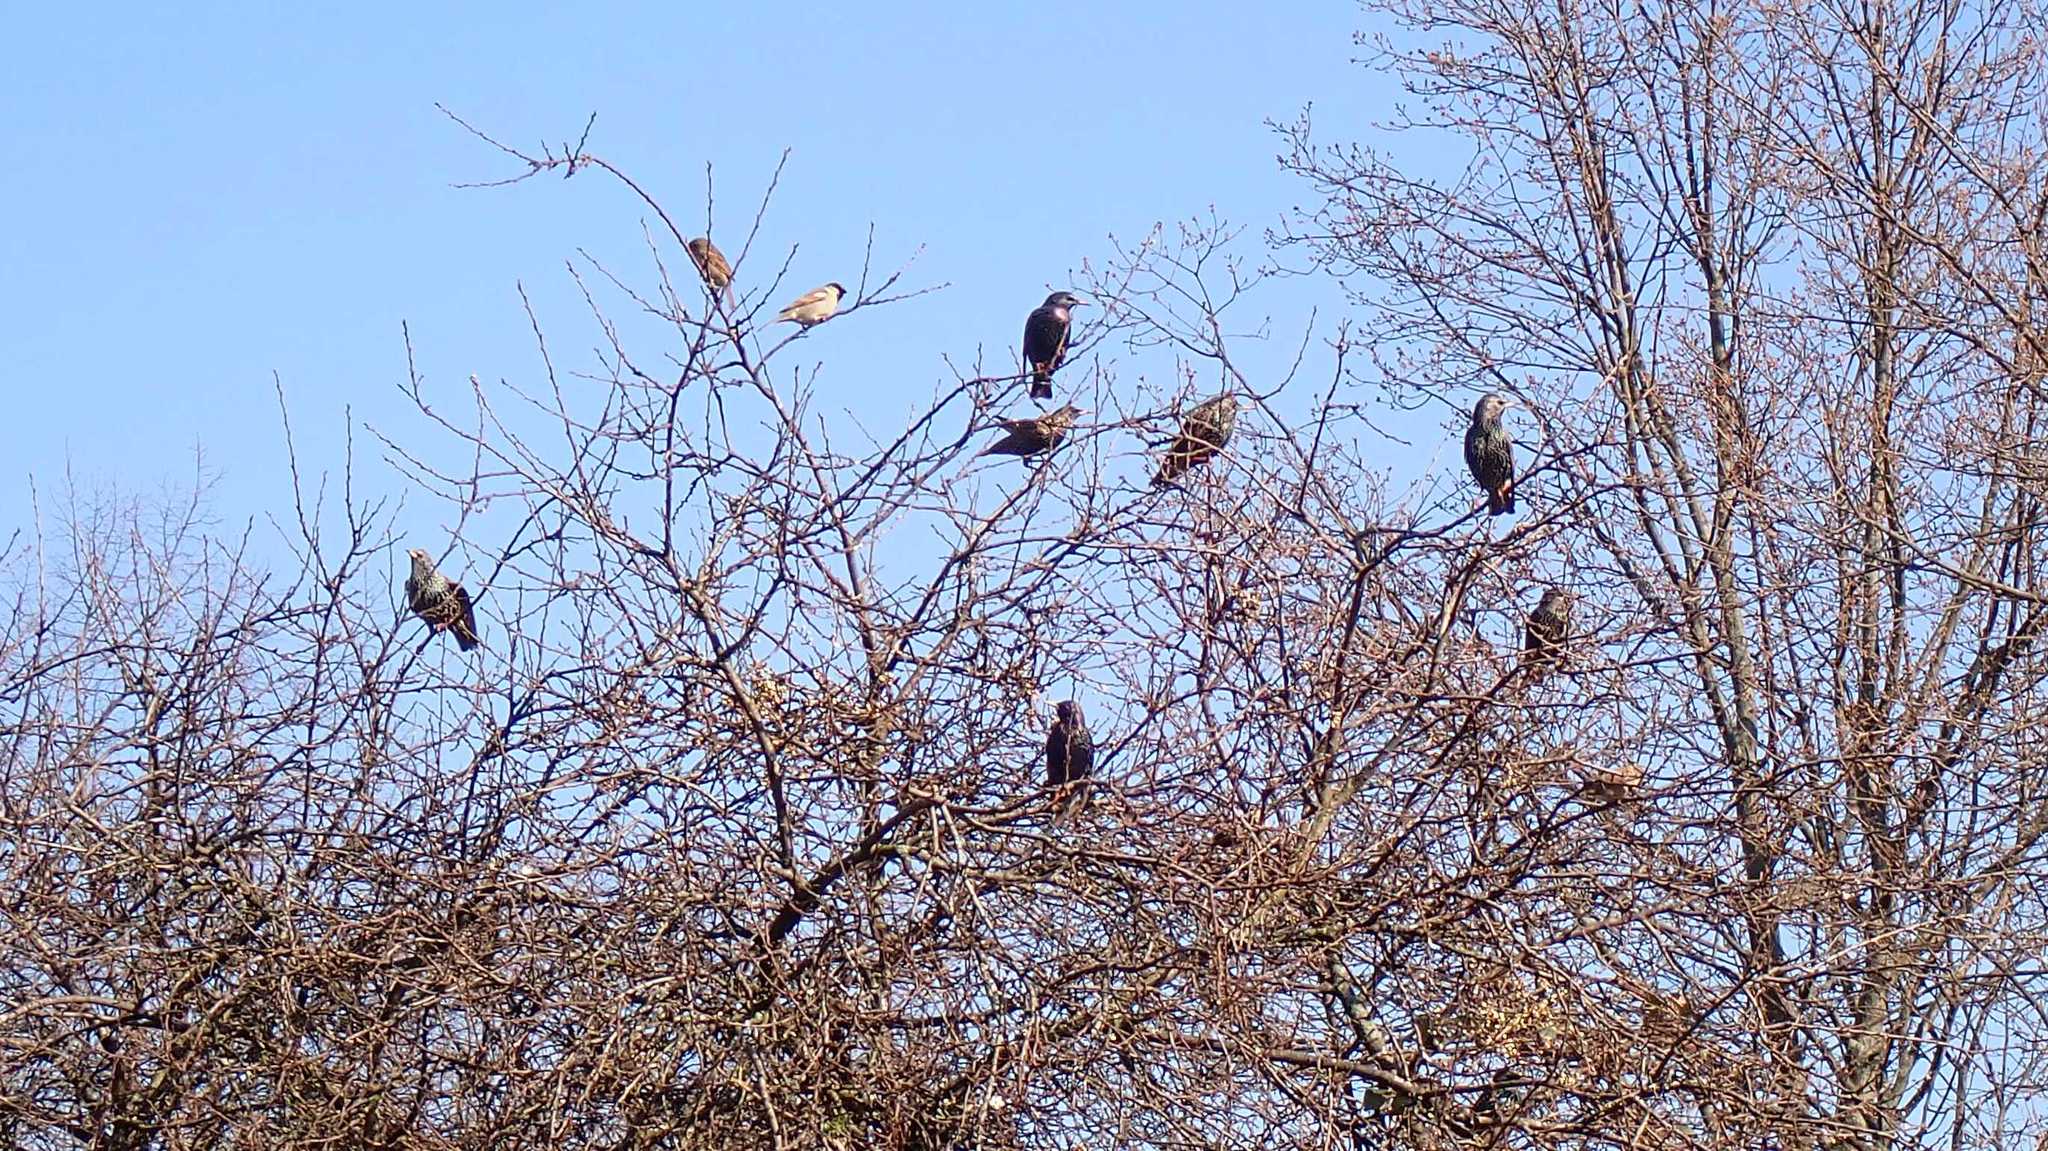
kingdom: Animalia
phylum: Chordata
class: Aves
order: Passeriformes
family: Sturnidae
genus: Sturnus
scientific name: Sturnus vulgaris
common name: Common starling
